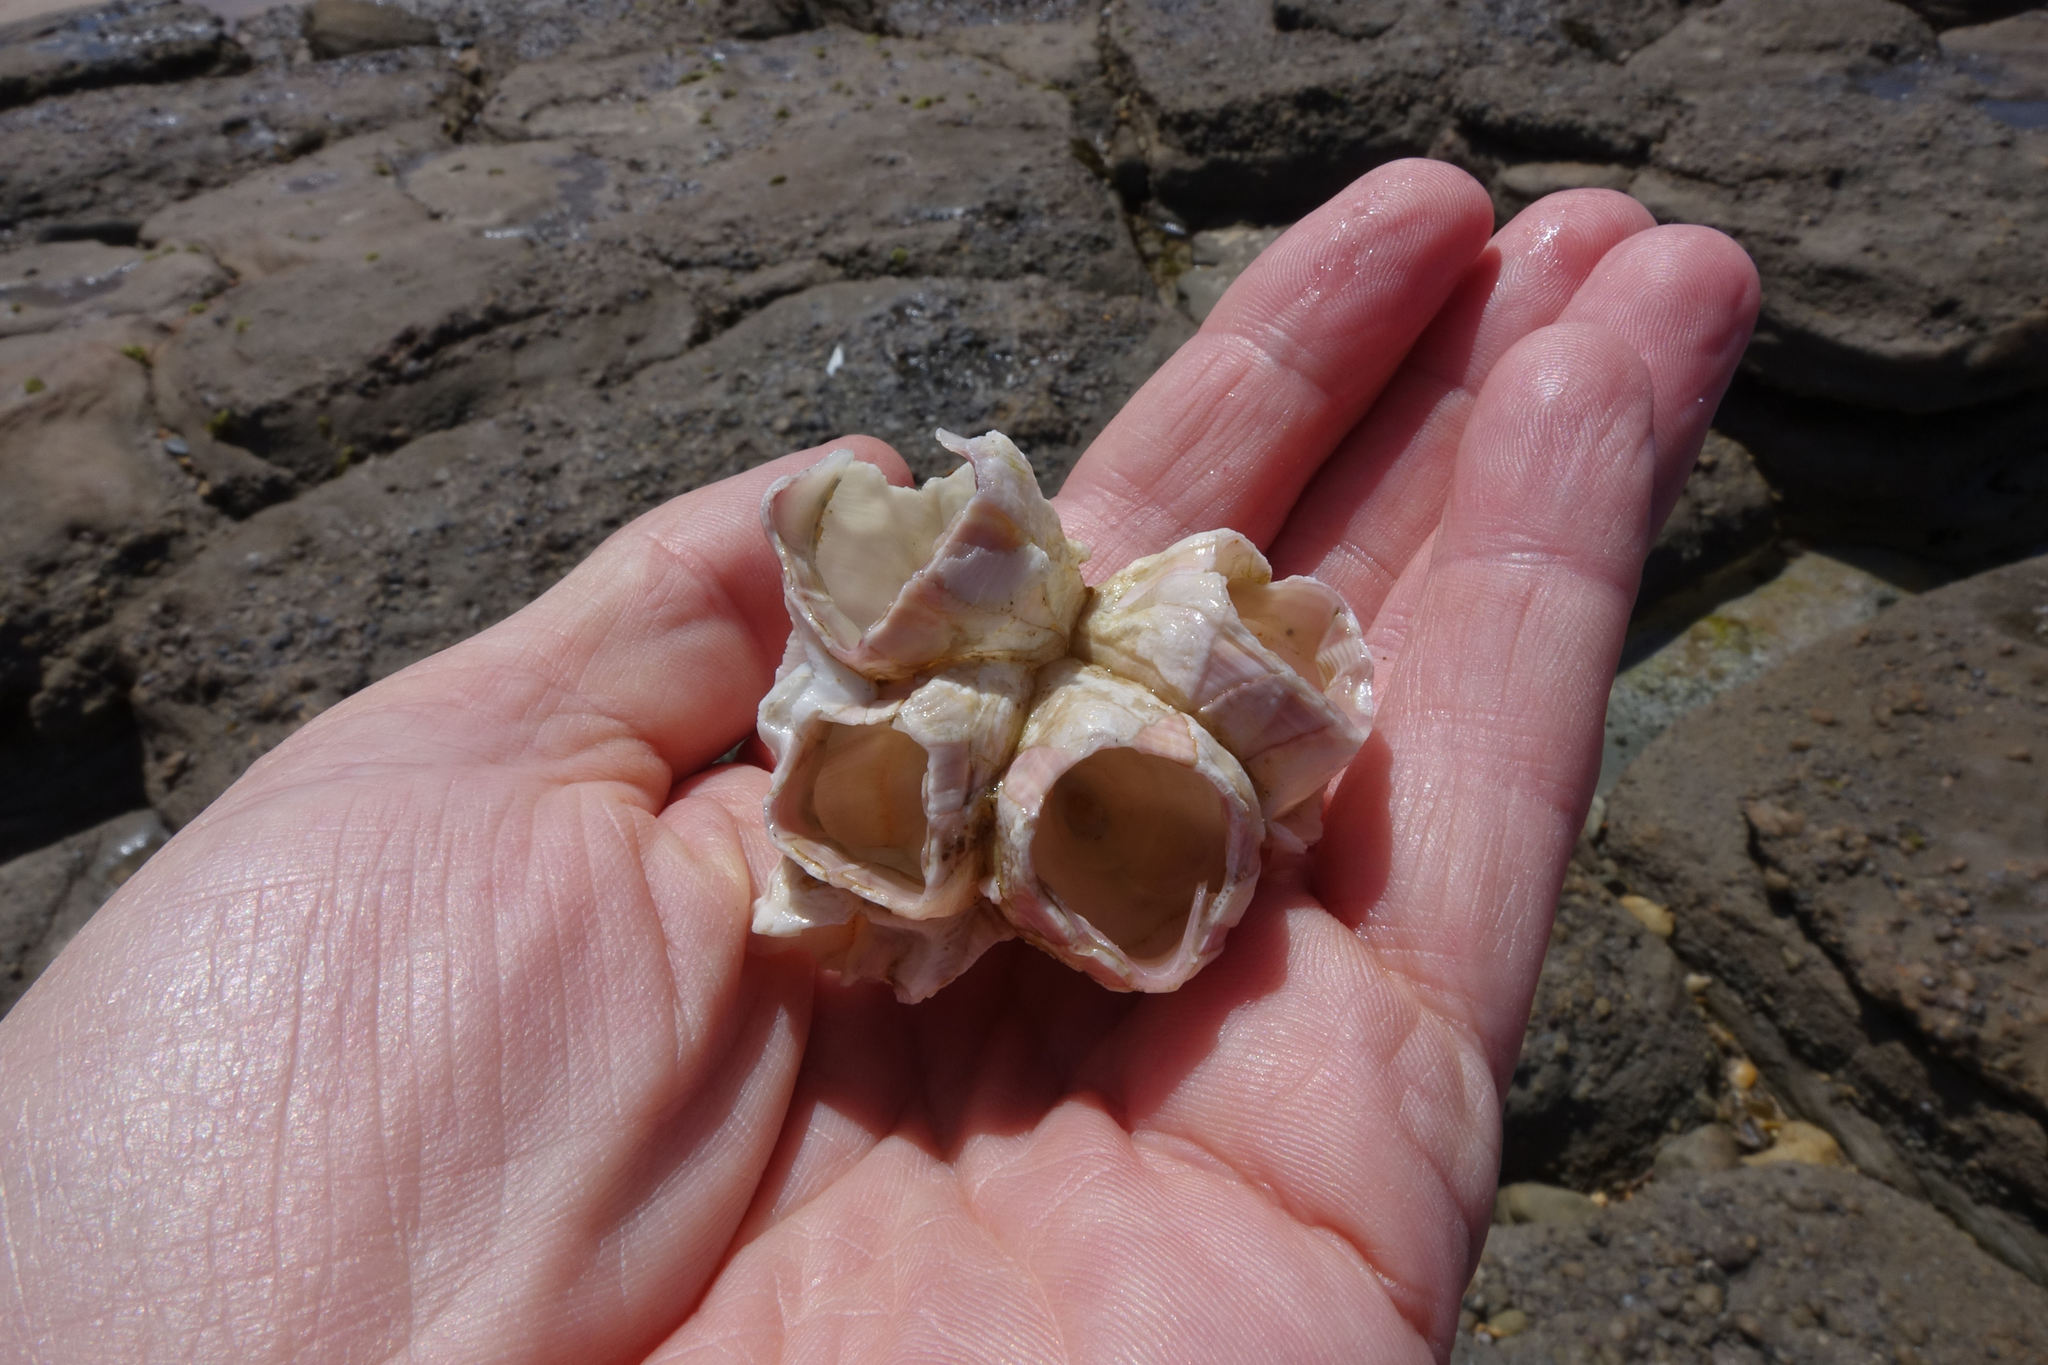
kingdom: Animalia
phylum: Arthropoda
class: Maxillopoda
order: Sessilia
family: Balanidae
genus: Notomegabalanus
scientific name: Notomegabalanus decorus
